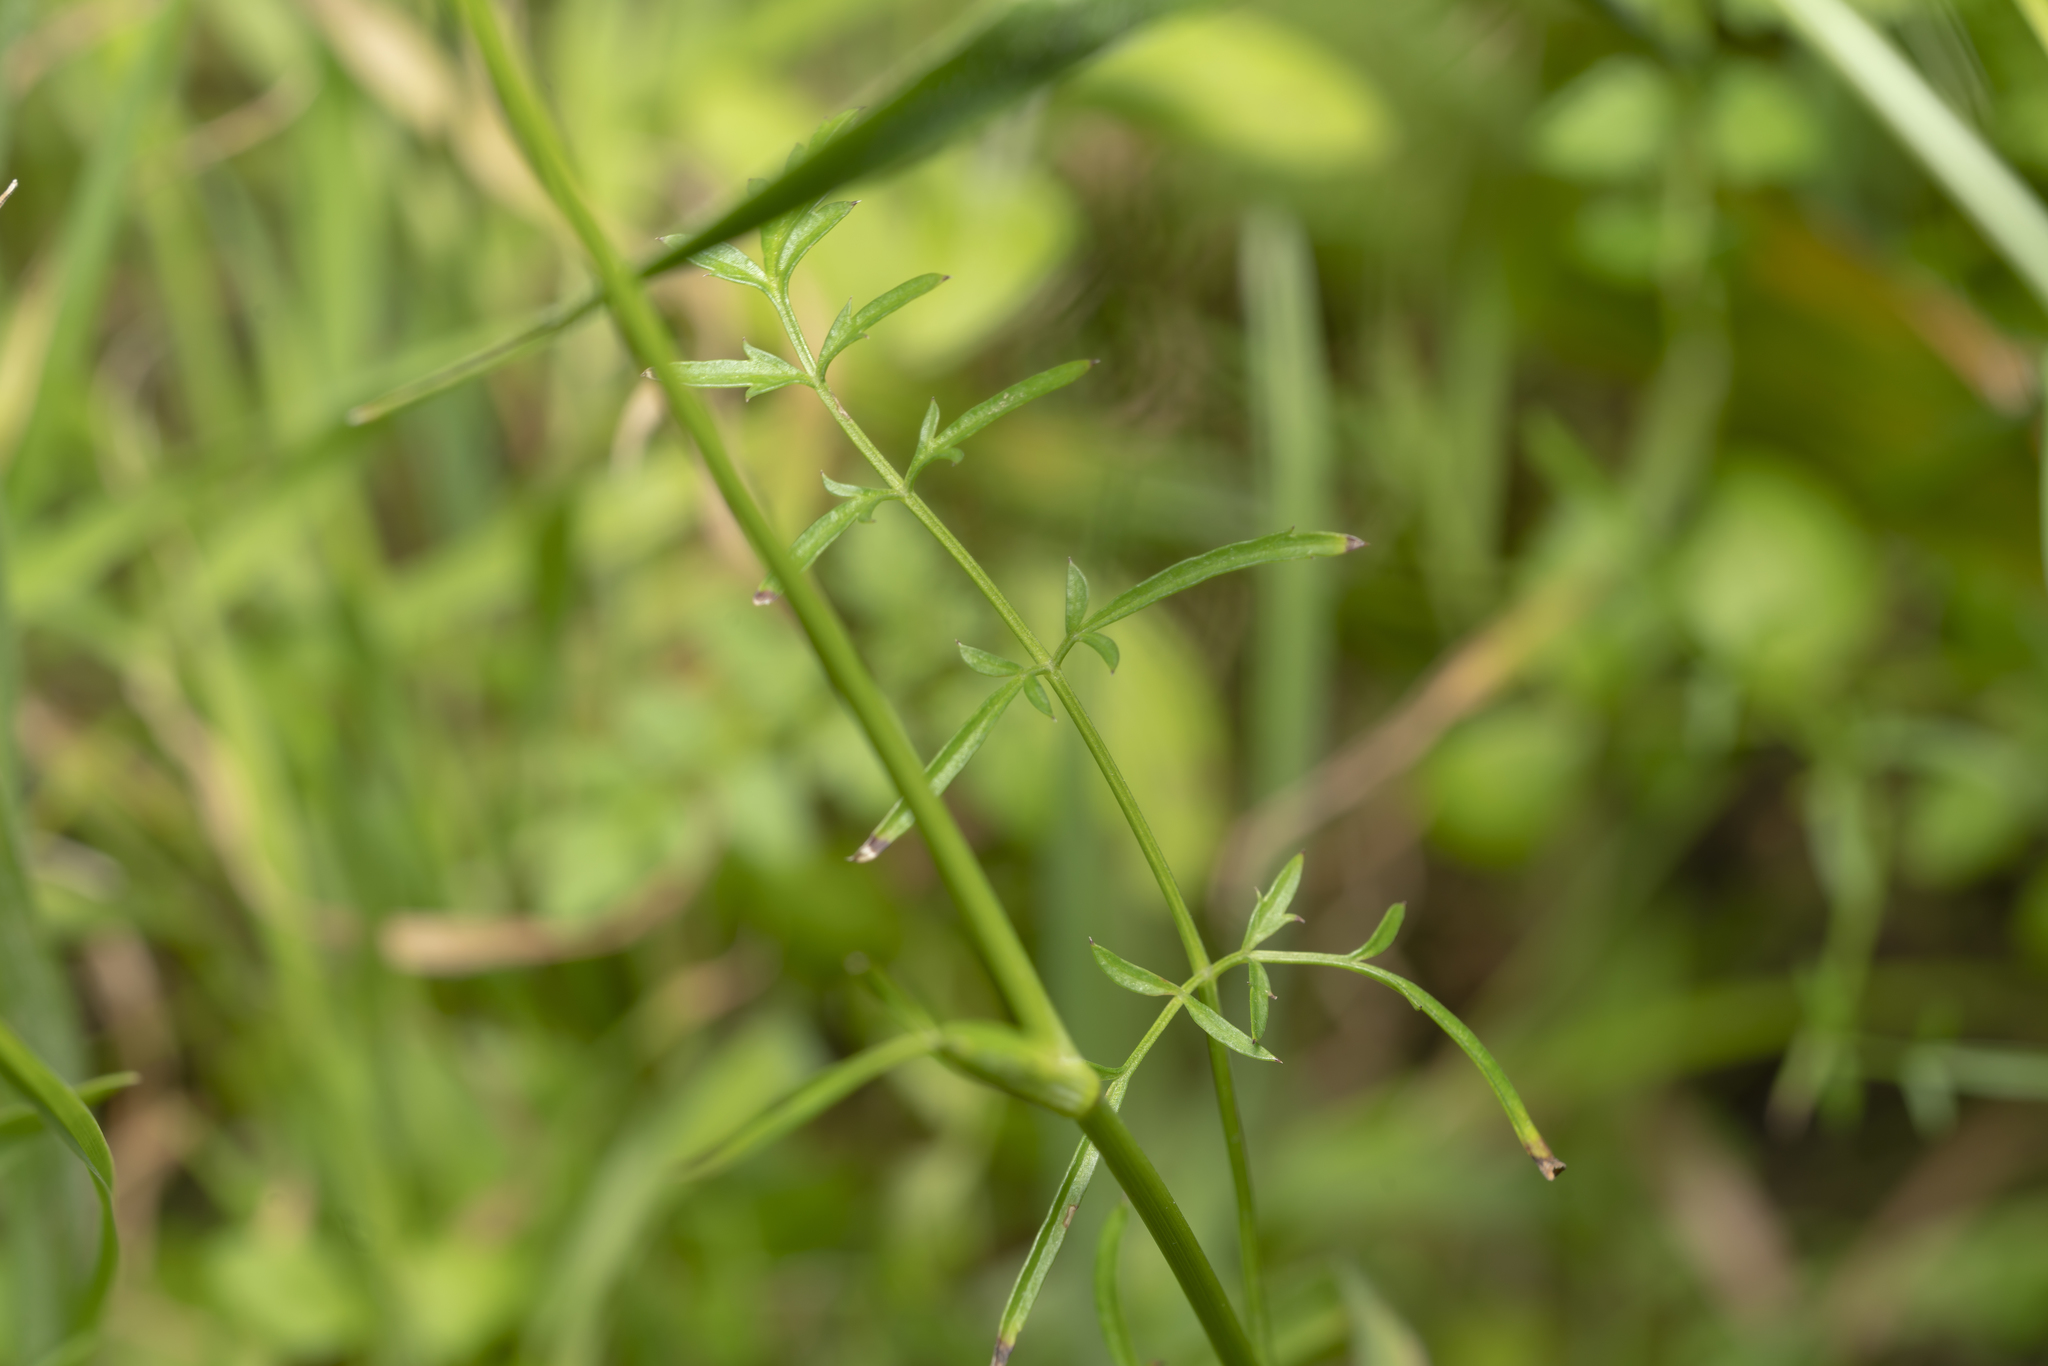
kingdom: Plantae
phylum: Tracheophyta
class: Magnoliopsida
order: Apiales
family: Apiaceae
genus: Scaligeria
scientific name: Scaligeria napiformis
